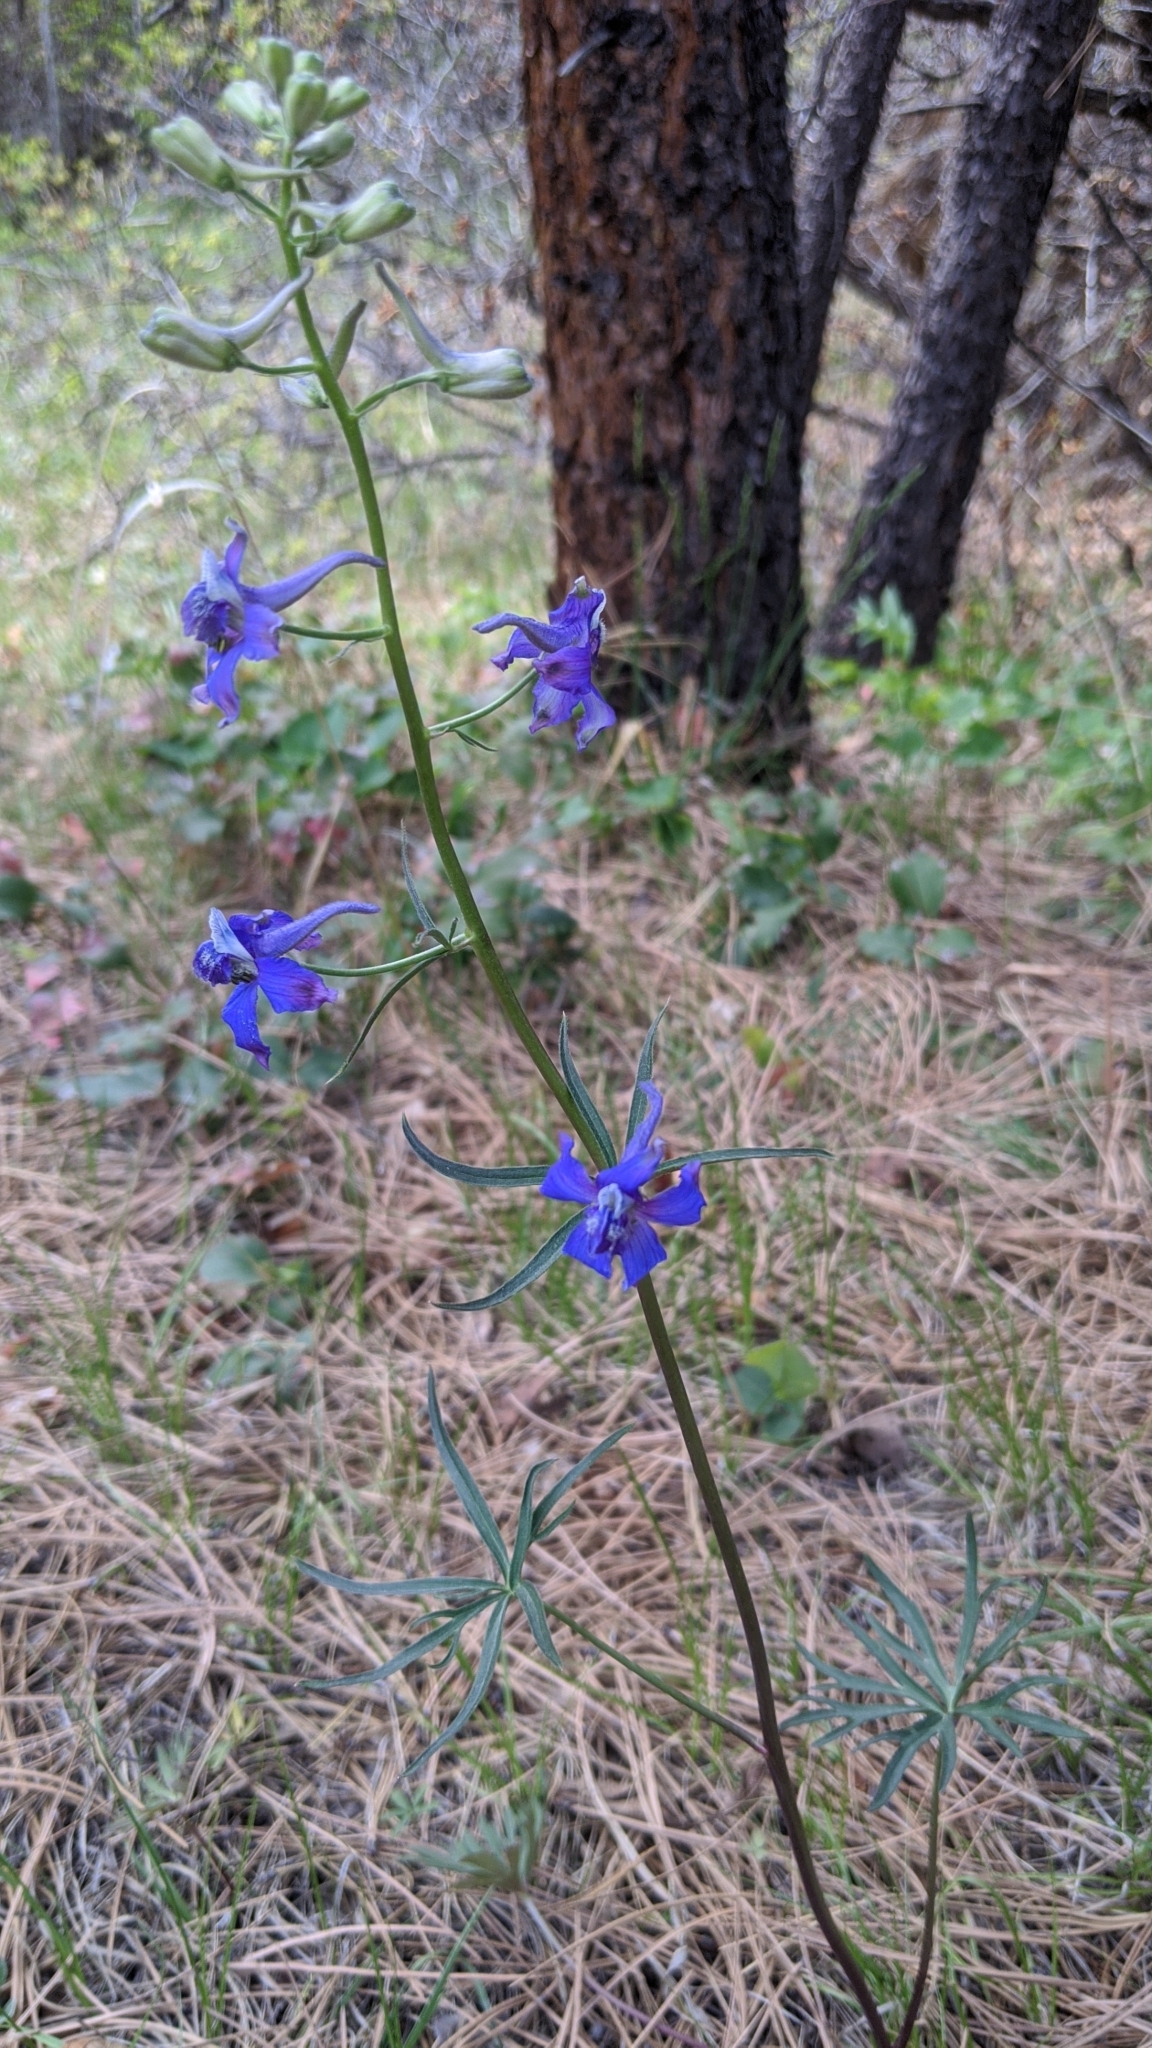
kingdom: Plantae
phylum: Tracheophyta
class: Magnoliopsida
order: Ranunculales
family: Ranunculaceae
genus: Delphinium
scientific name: Delphinium nuttallianum
